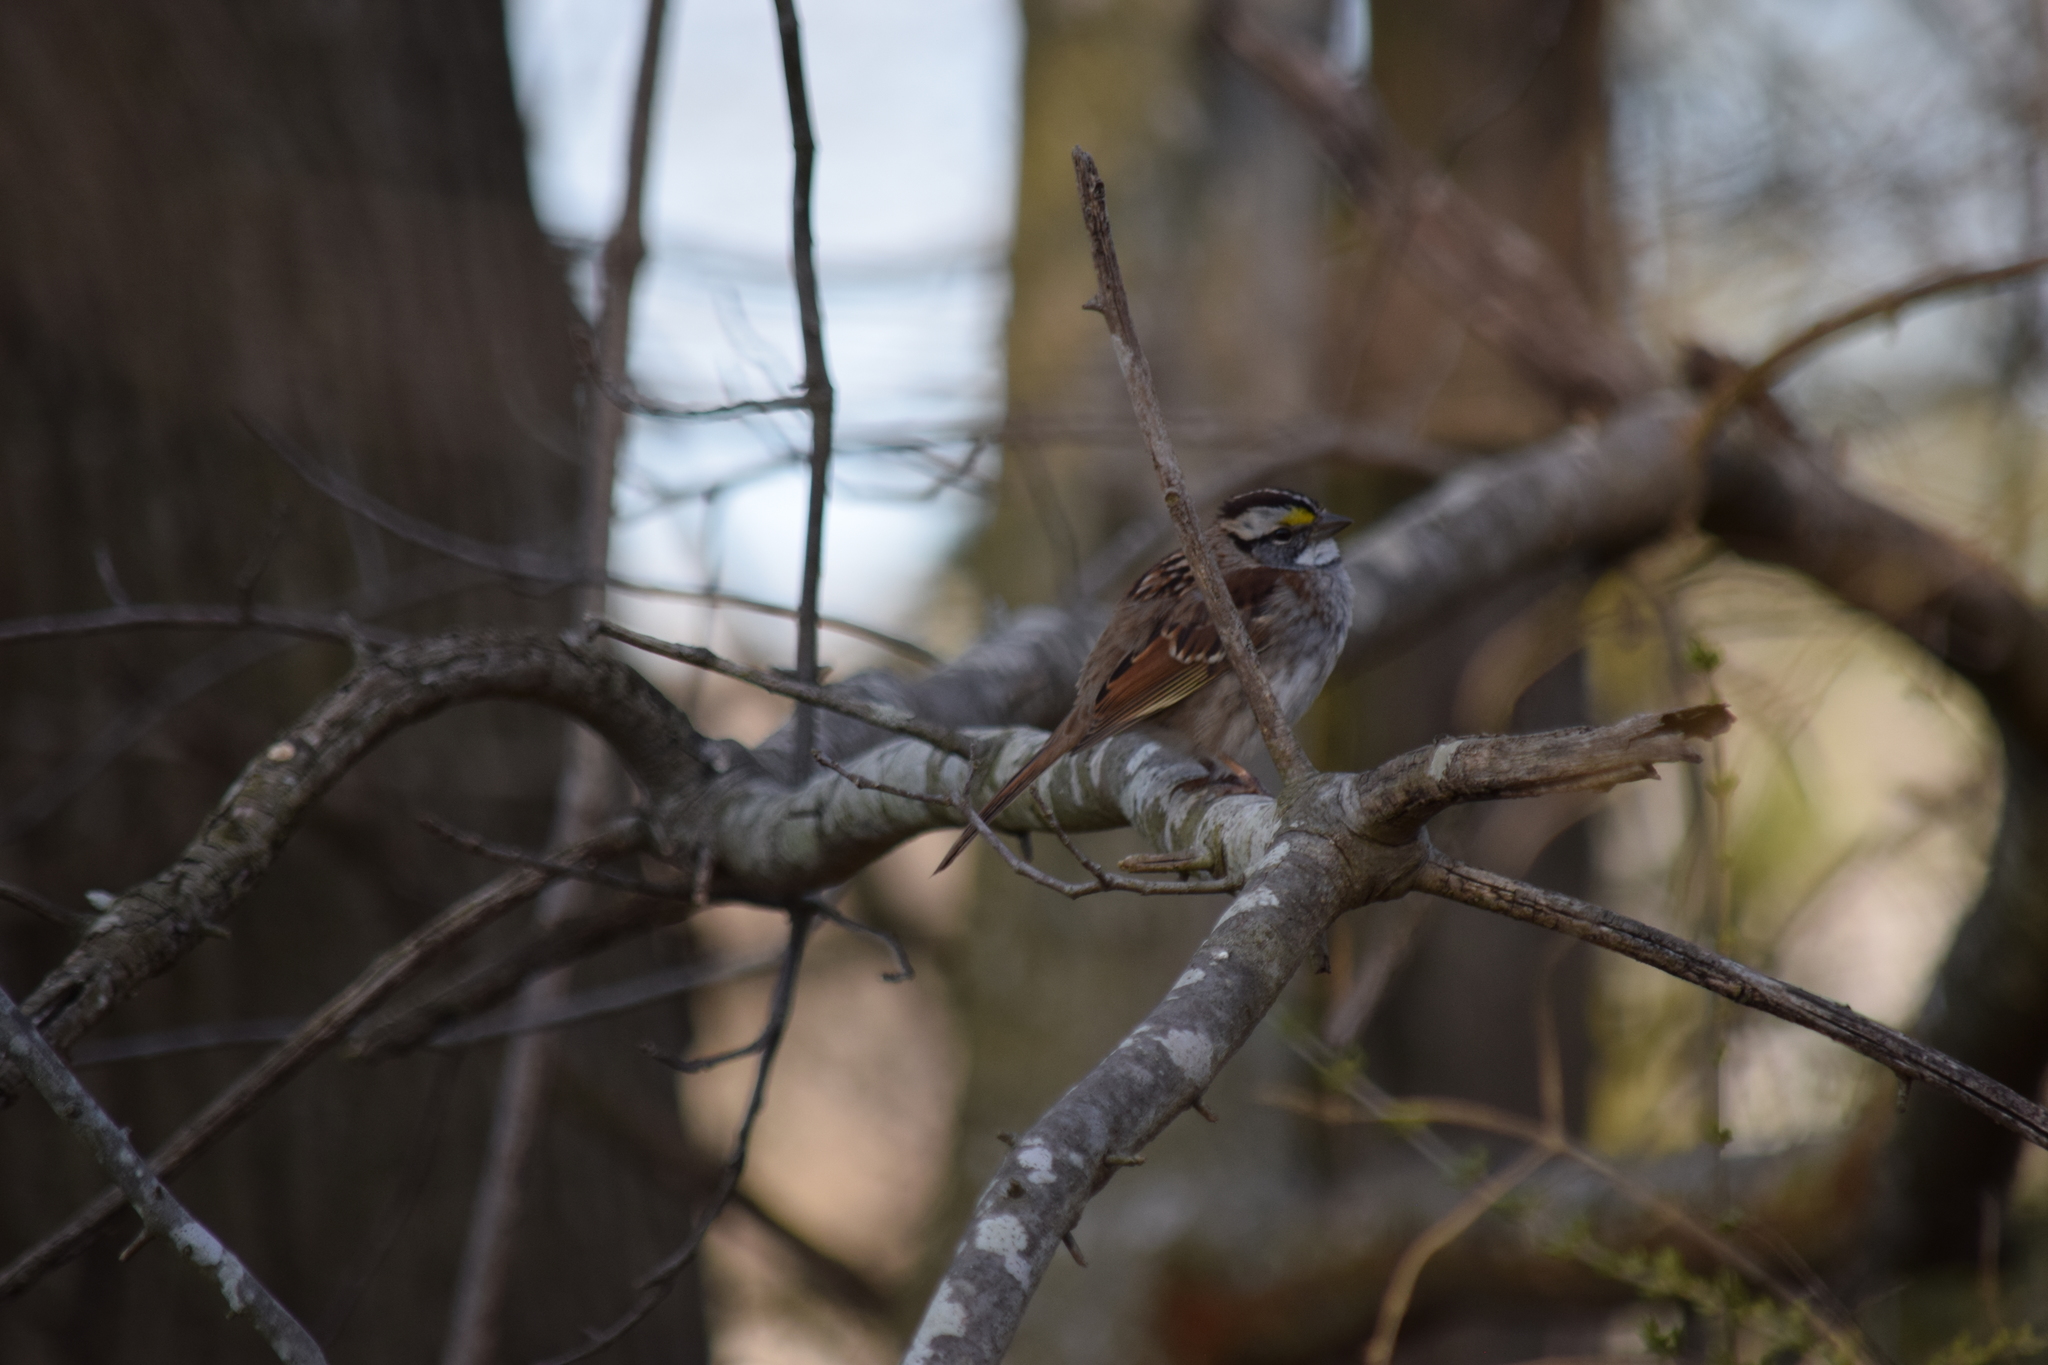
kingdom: Animalia
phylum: Chordata
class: Aves
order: Passeriformes
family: Passerellidae
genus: Zonotrichia
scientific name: Zonotrichia albicollis
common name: White-throated sparrow
